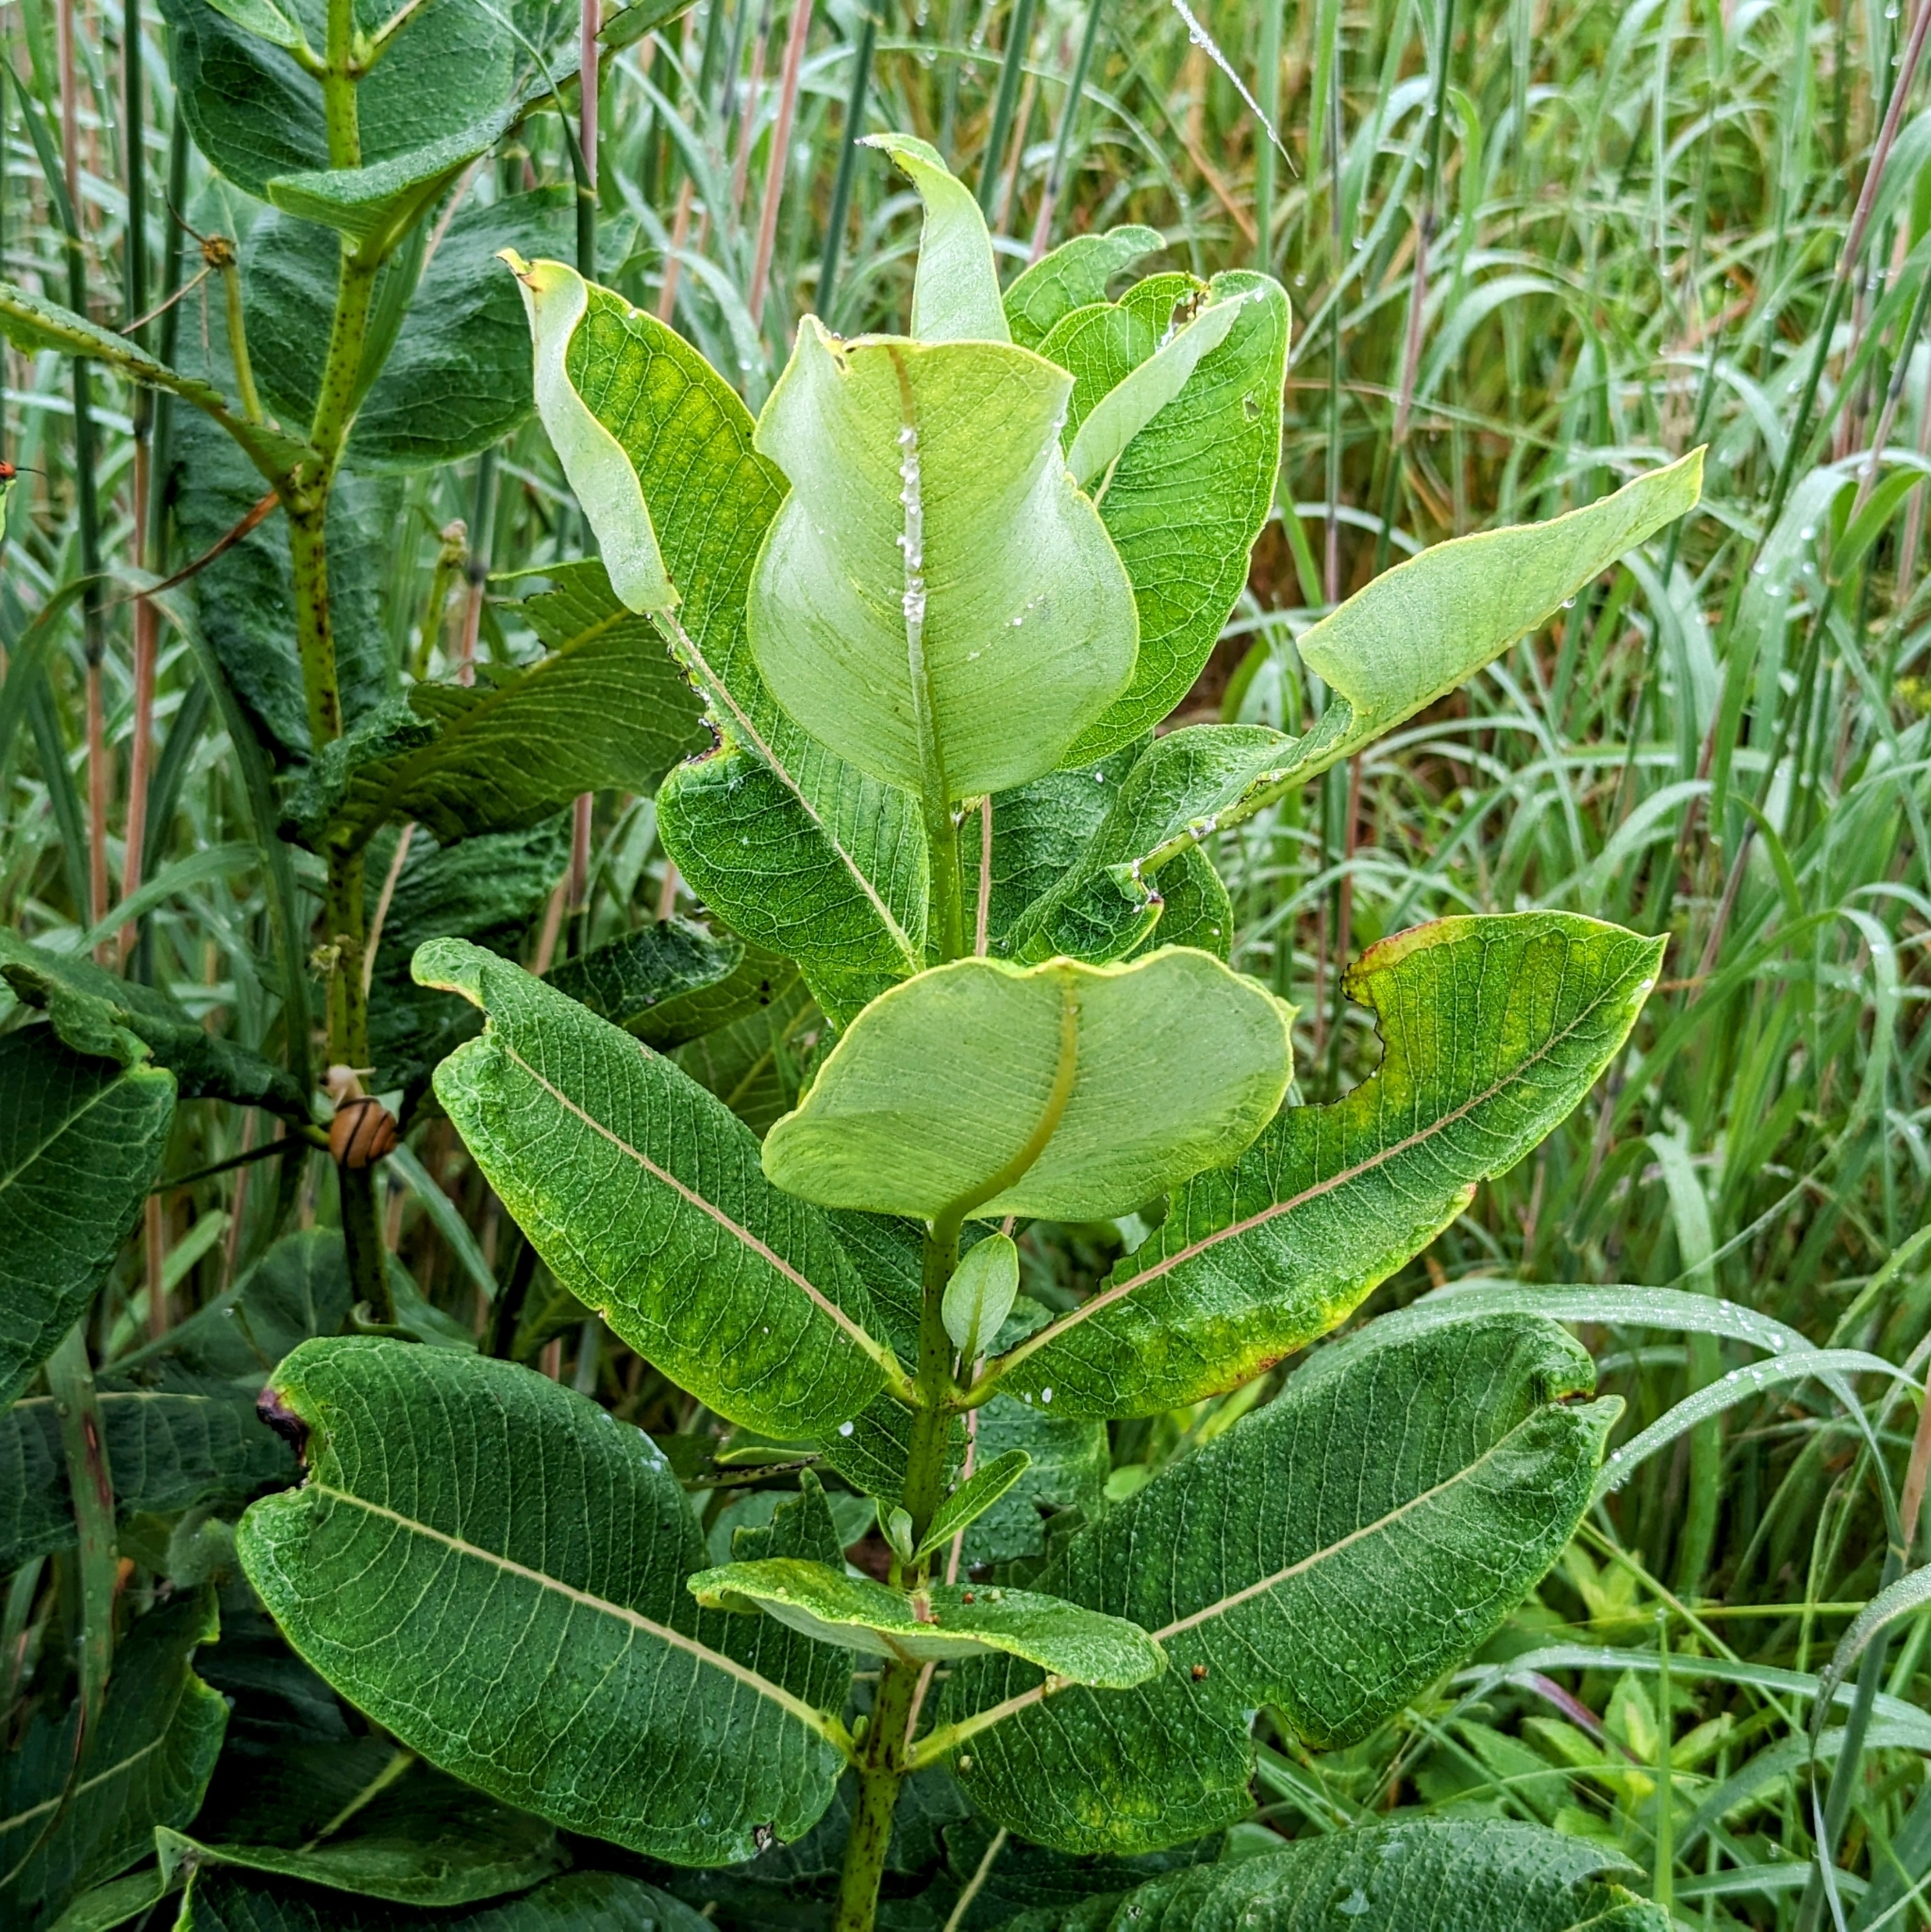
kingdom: Plantae
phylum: Tracheophyta
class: Magnoliopsida
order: Gentianales
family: Apocynaceae
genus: Asclepias
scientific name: Asclepias syriaca
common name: Common milkweed
